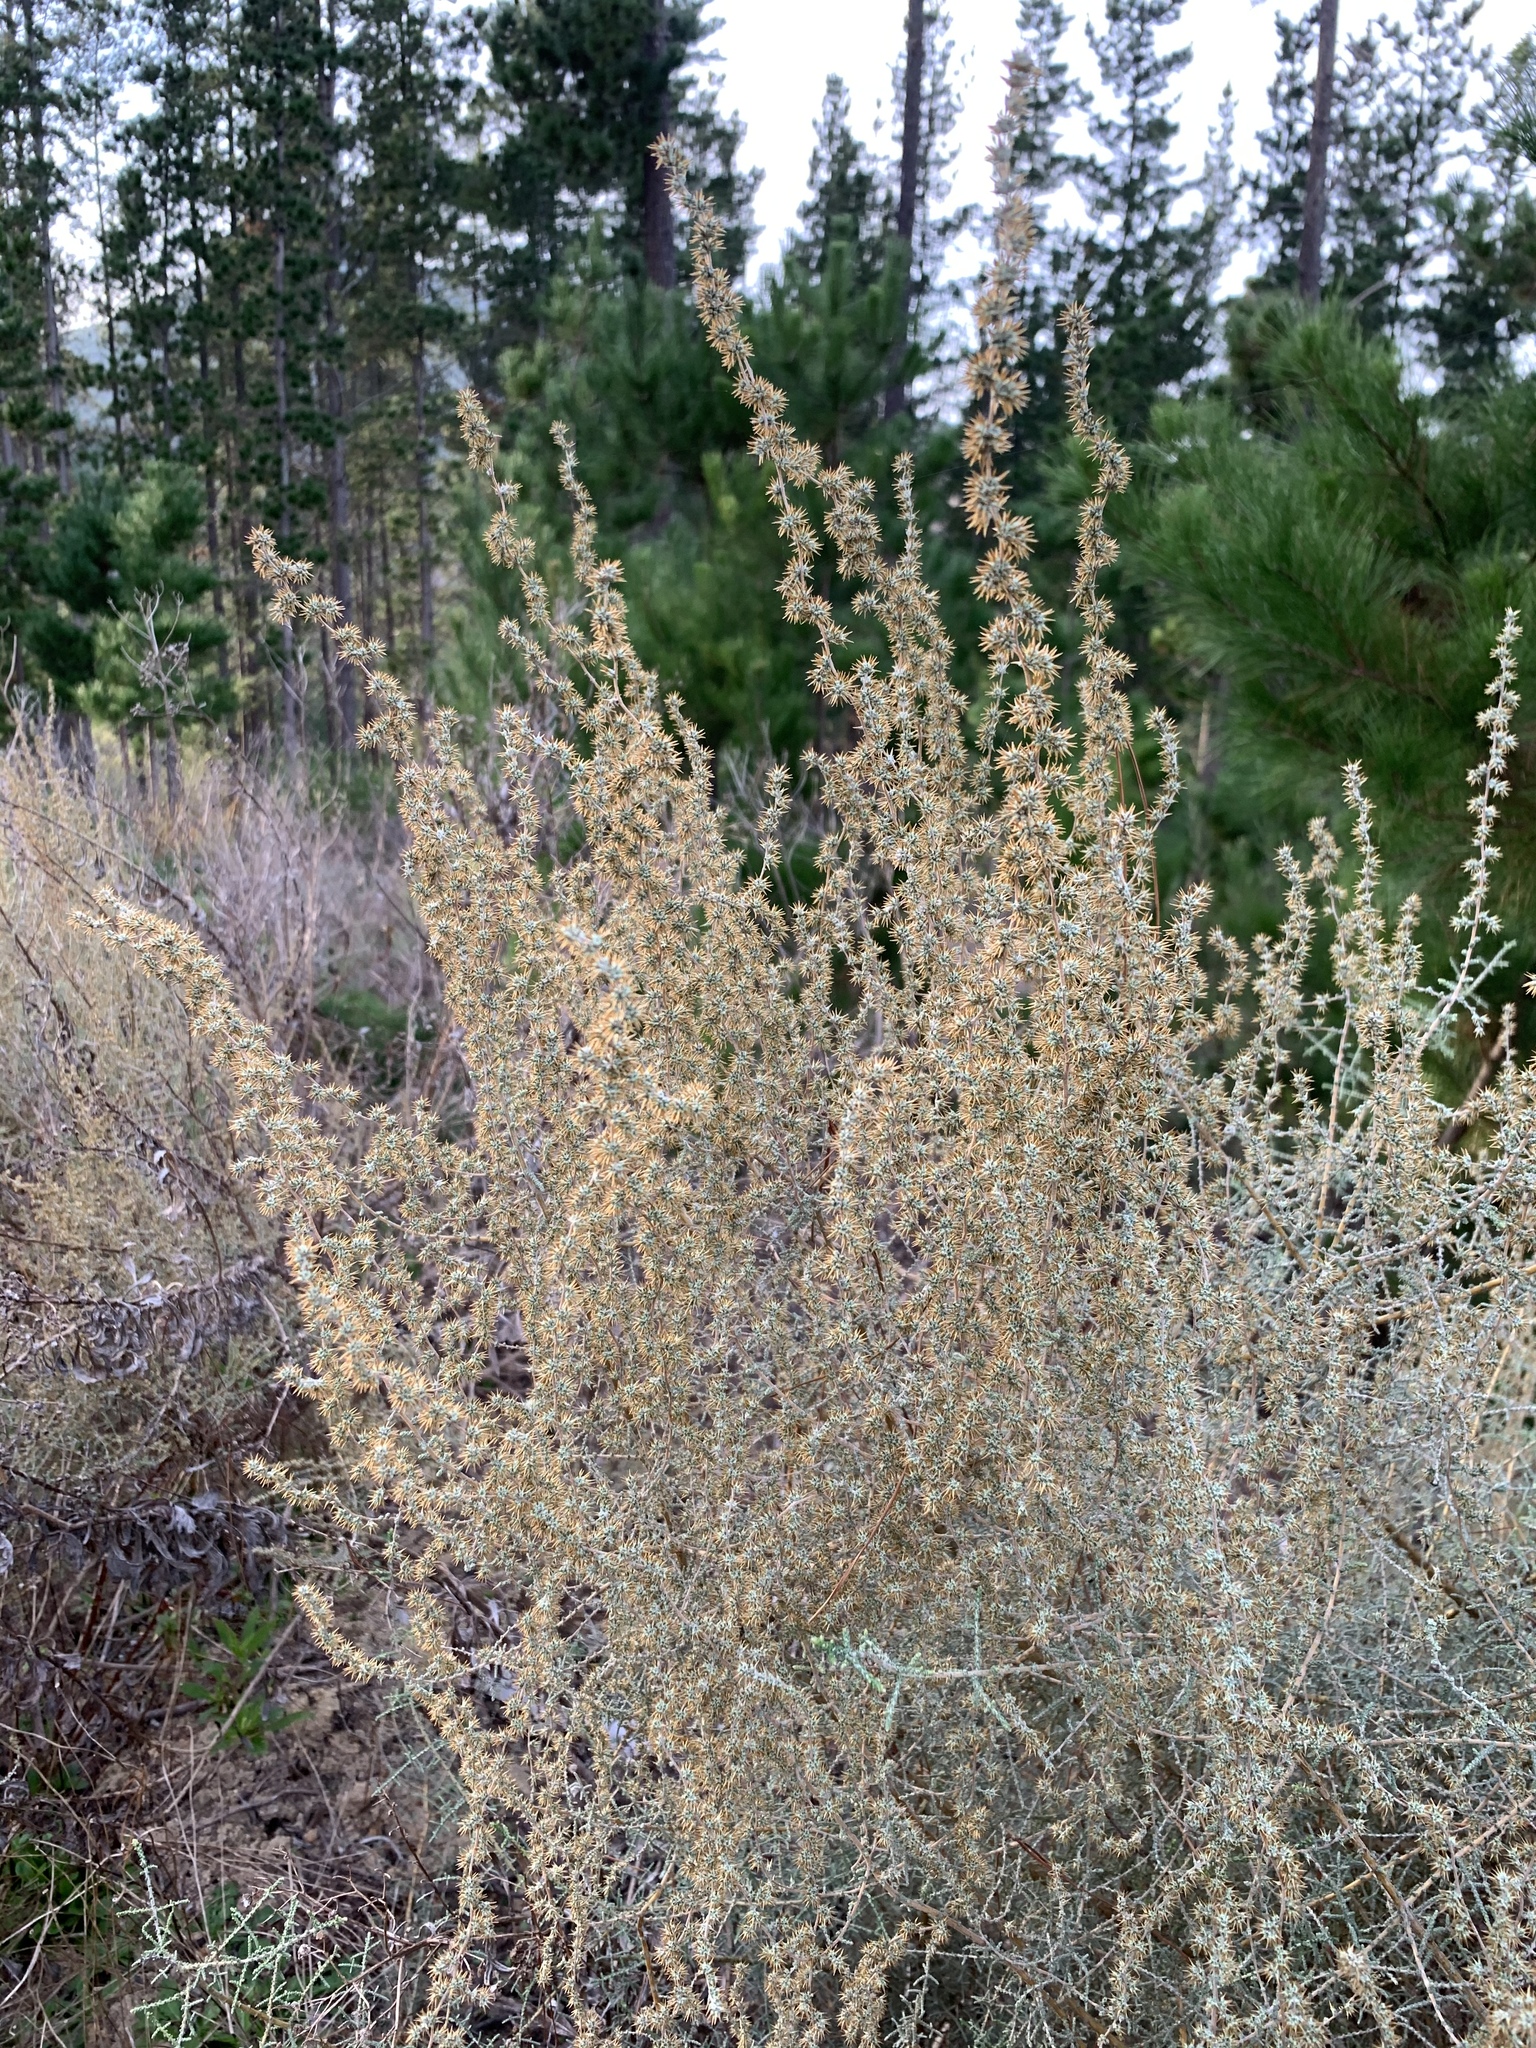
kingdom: Plantae
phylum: Tracheophyta
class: Magnoliopsida
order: Asterales
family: Asteraceae
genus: Seriphium
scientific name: Seriphium plumosum
